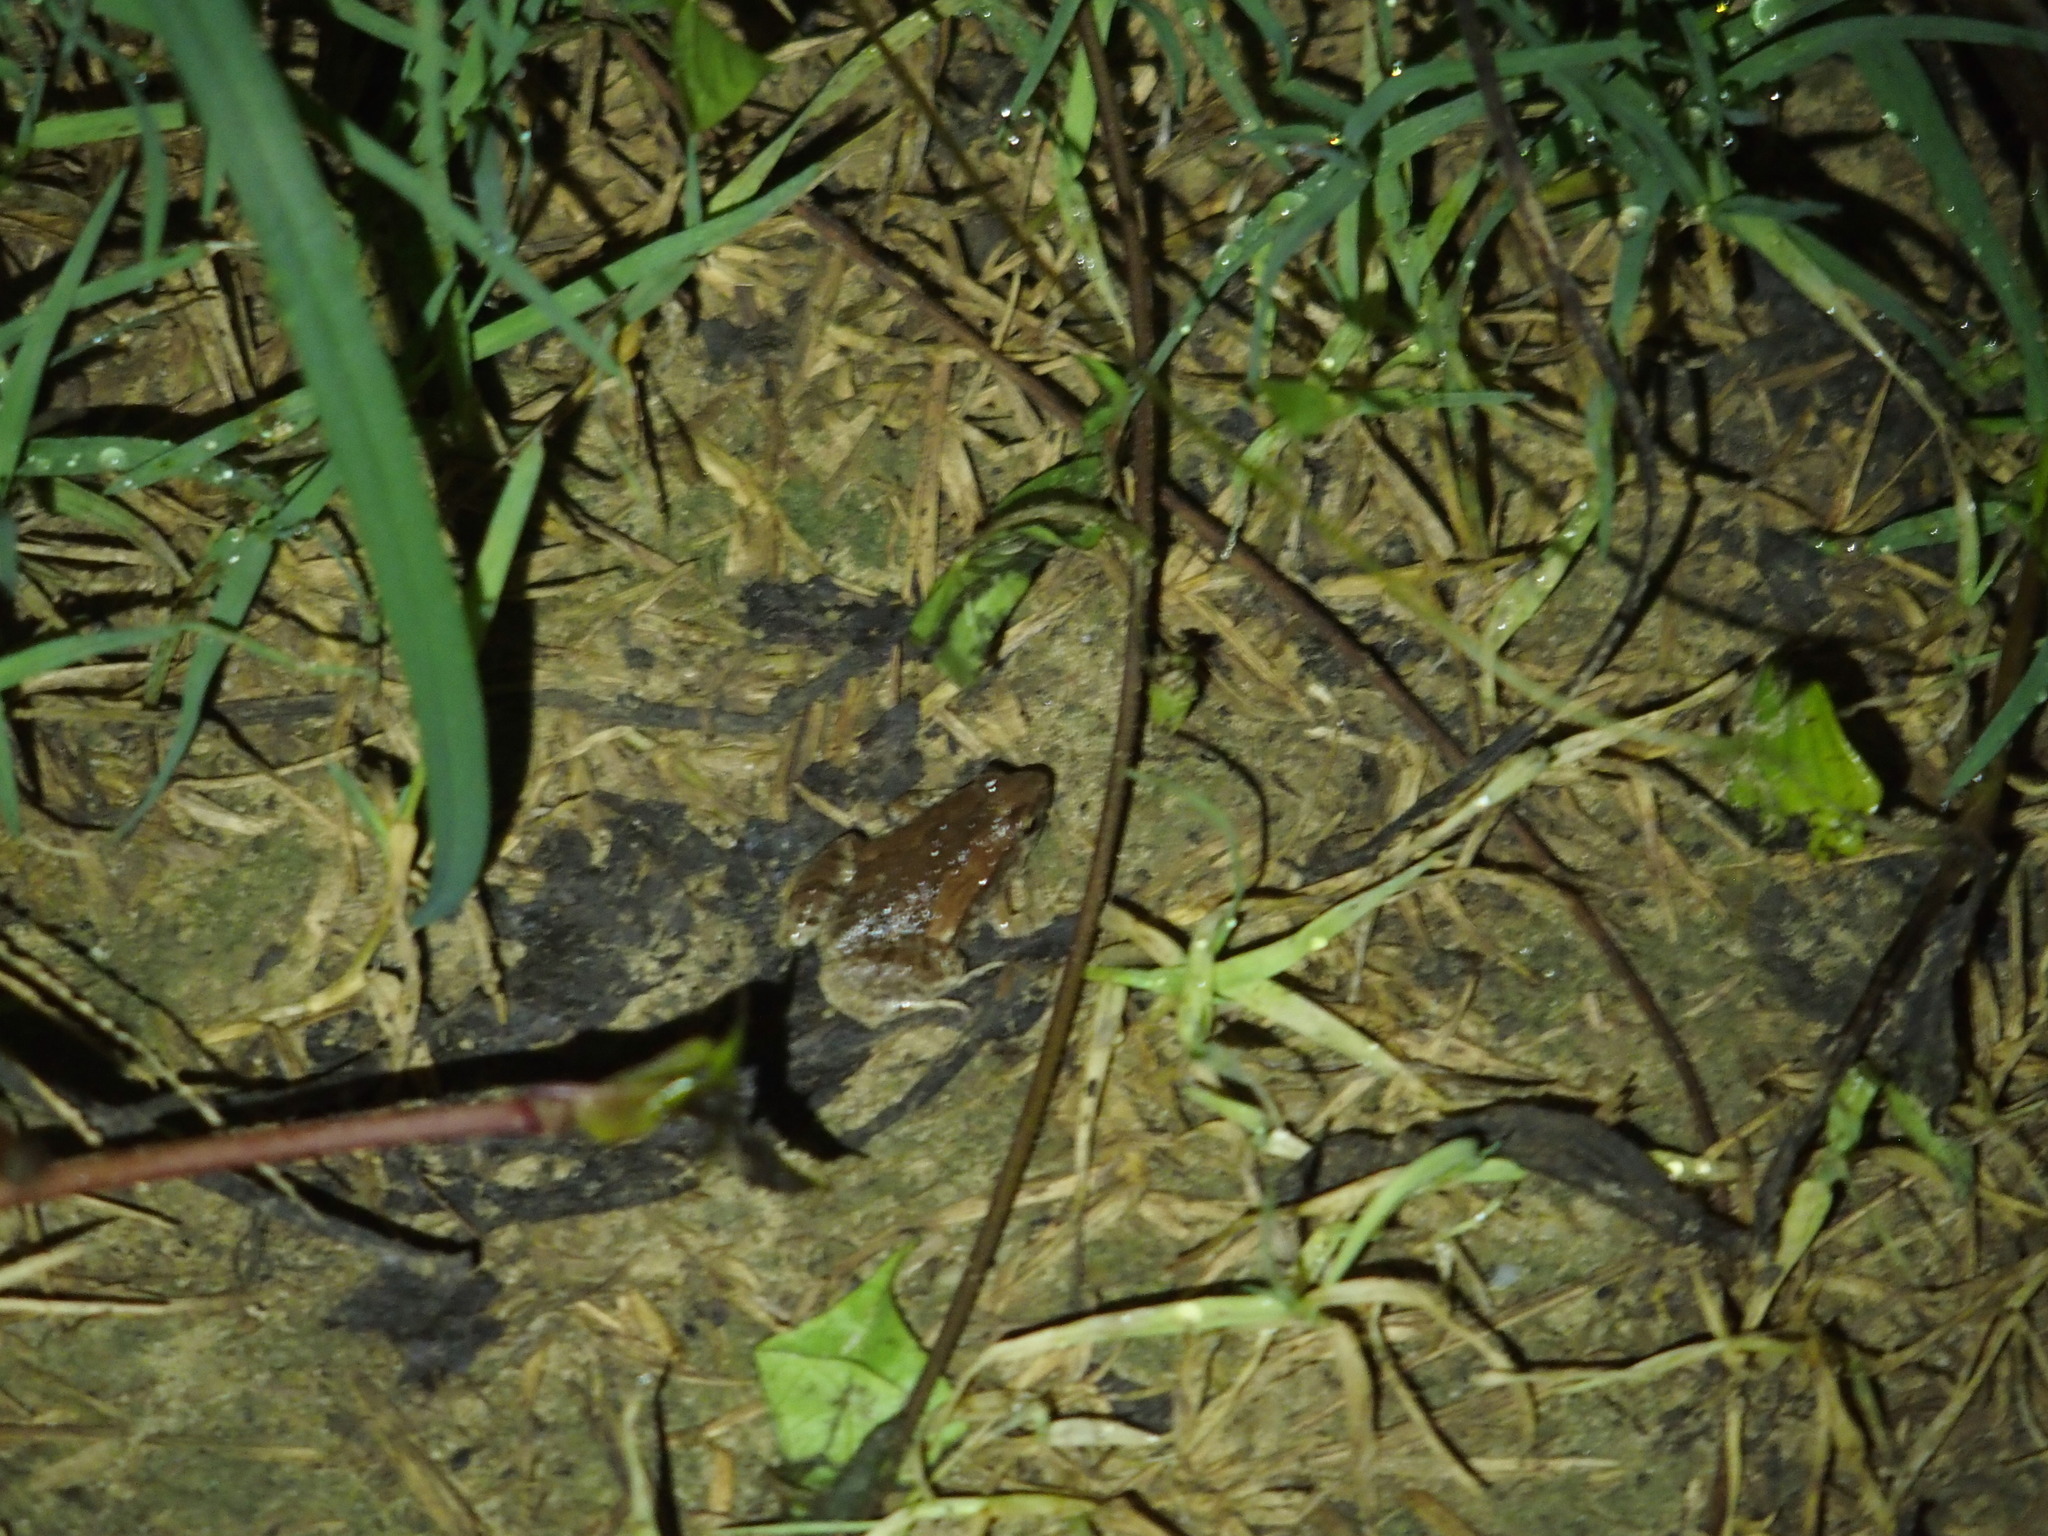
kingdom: Animalia
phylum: Chordata
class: Amphibia
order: Anura
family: Microhylidae
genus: Microhyla
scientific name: Microhyla fissipes
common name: Ornate narrow-mouthed frog
